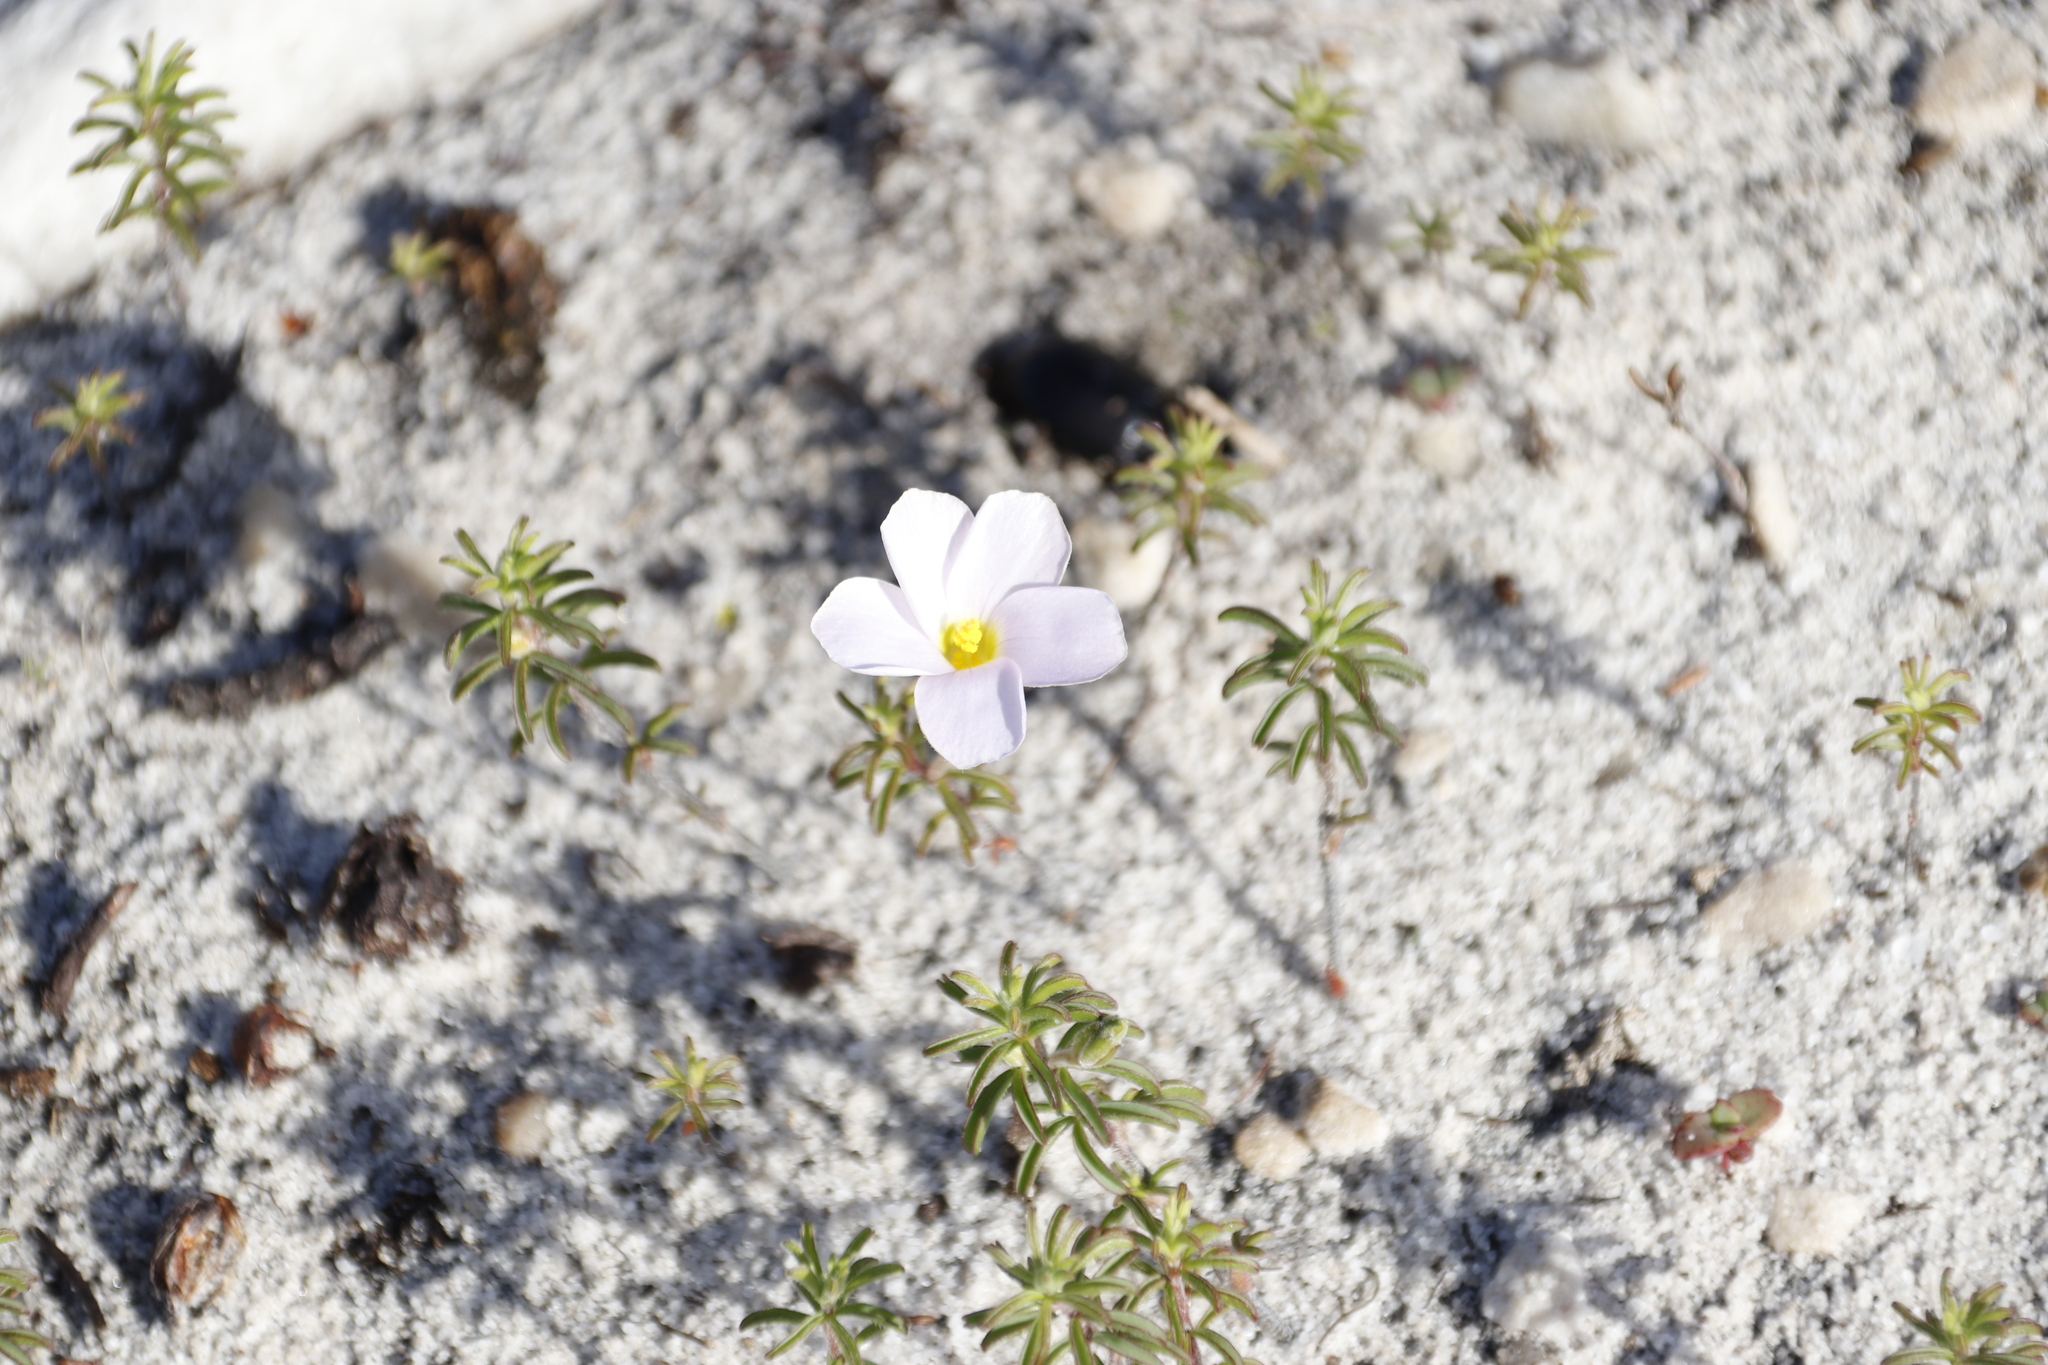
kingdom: Plantae
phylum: Tracheophyta
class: Magnoliopsida
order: Oxalidales
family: Oxalidaceae
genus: Oxalis
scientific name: Oxalis hirta
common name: Tropical woodsorrel
